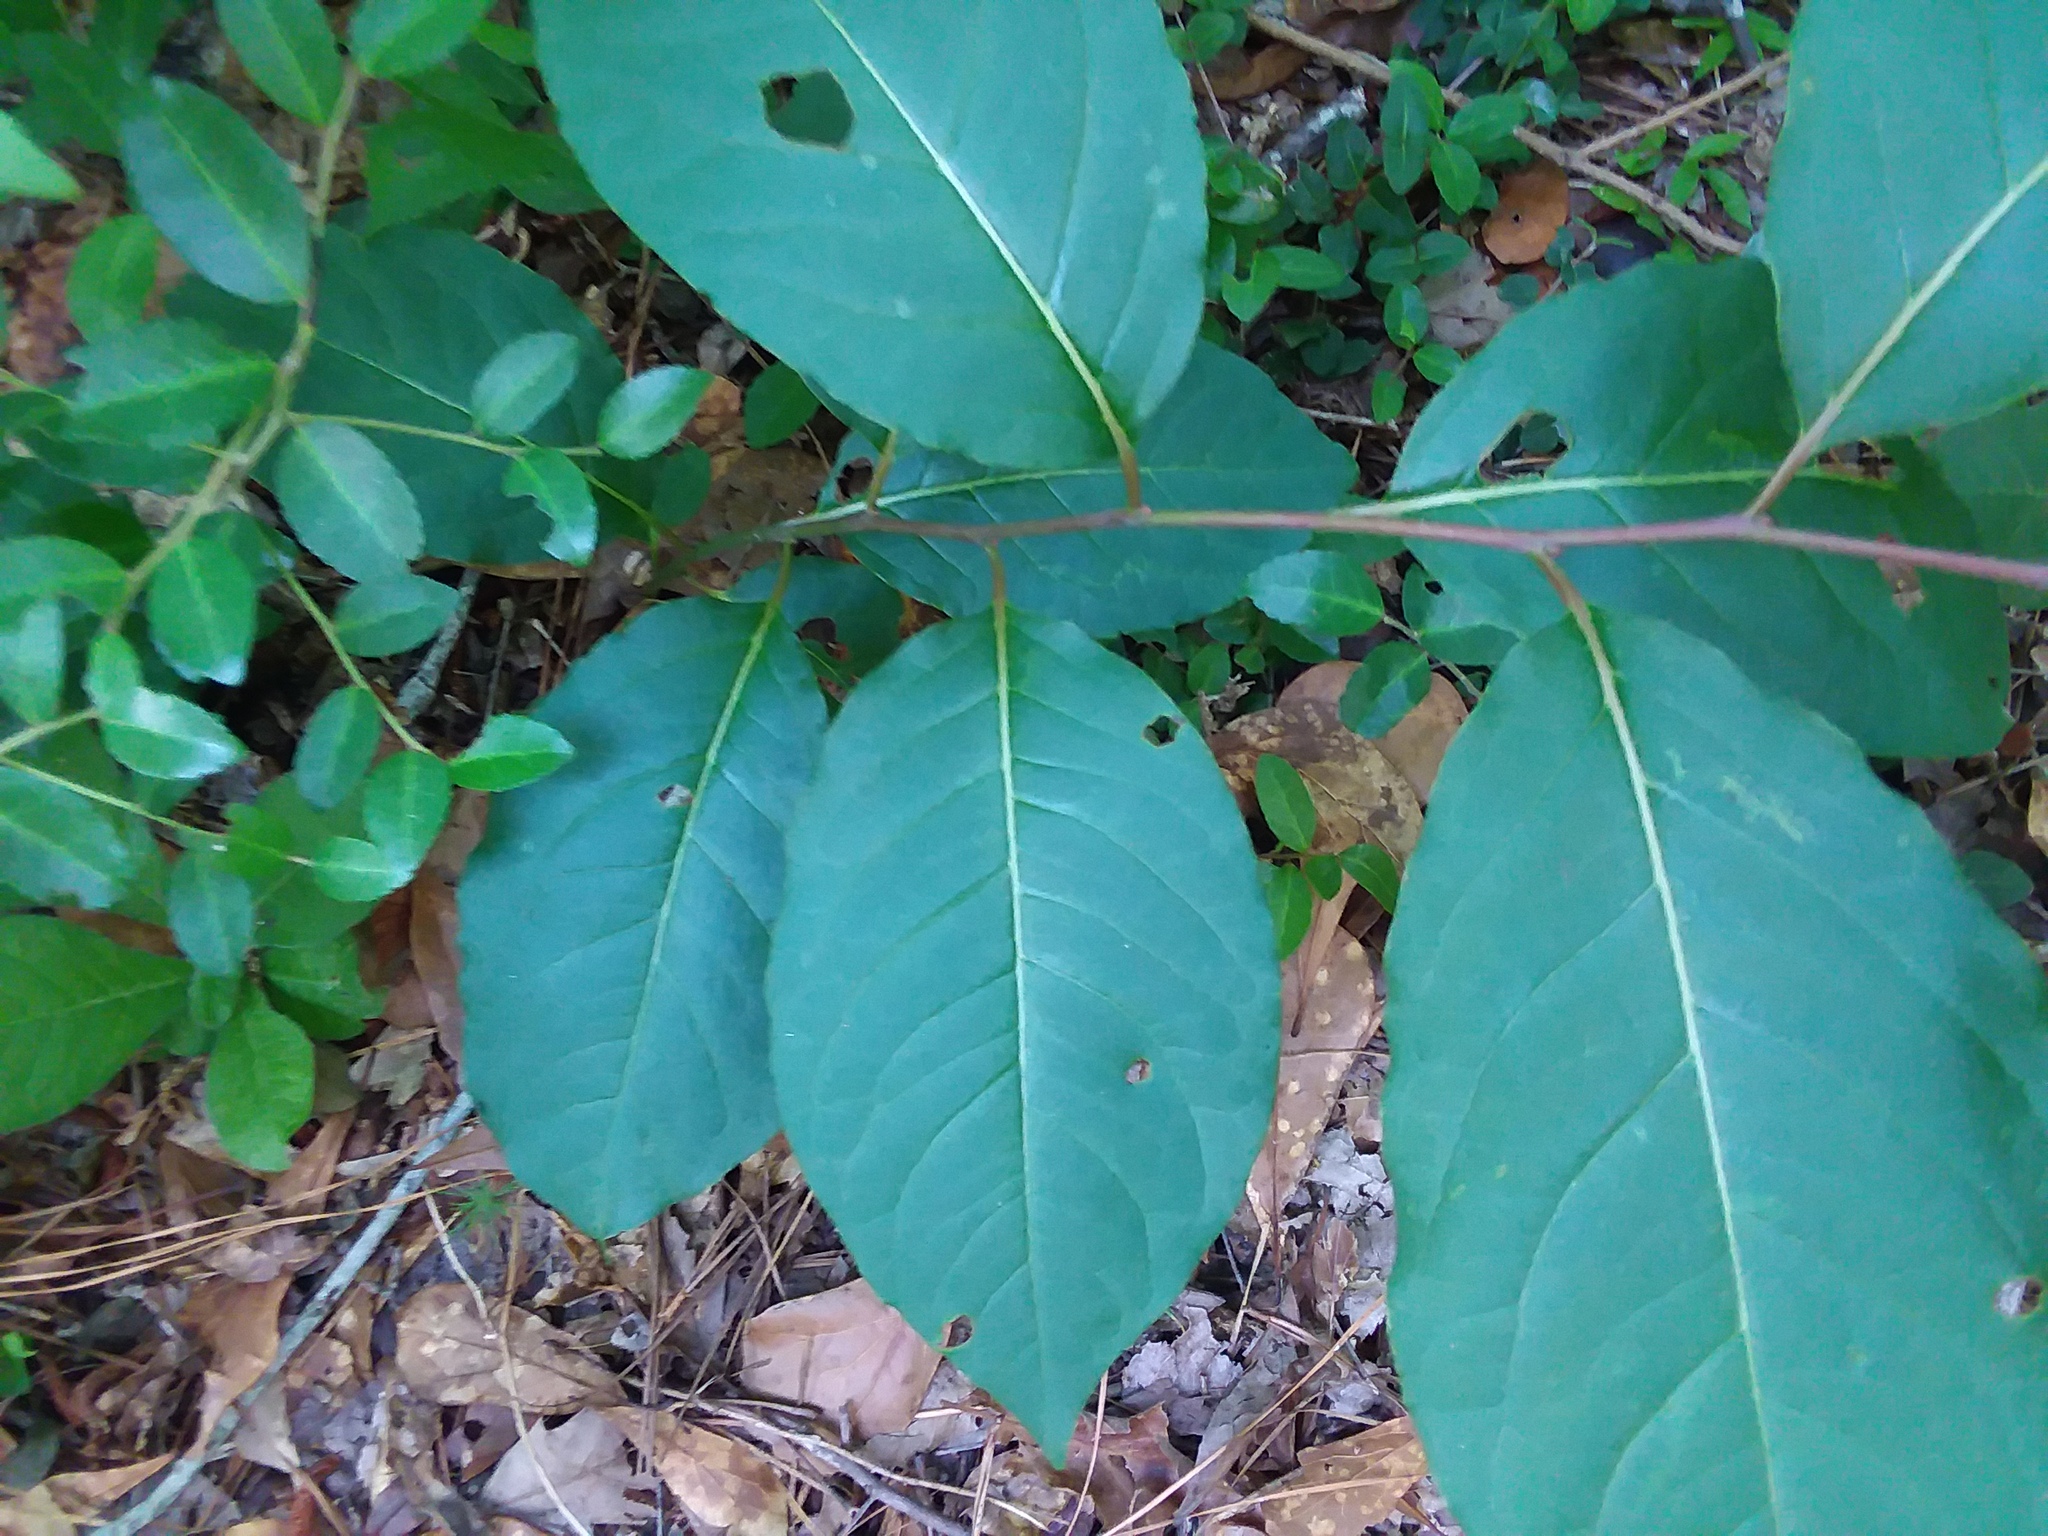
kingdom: Plantae
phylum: Tracheophyta
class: Magnoliopsida
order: Ericales
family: Ebenaceae
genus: Diospyros
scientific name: Diospyros virginiana
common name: Persimmon
